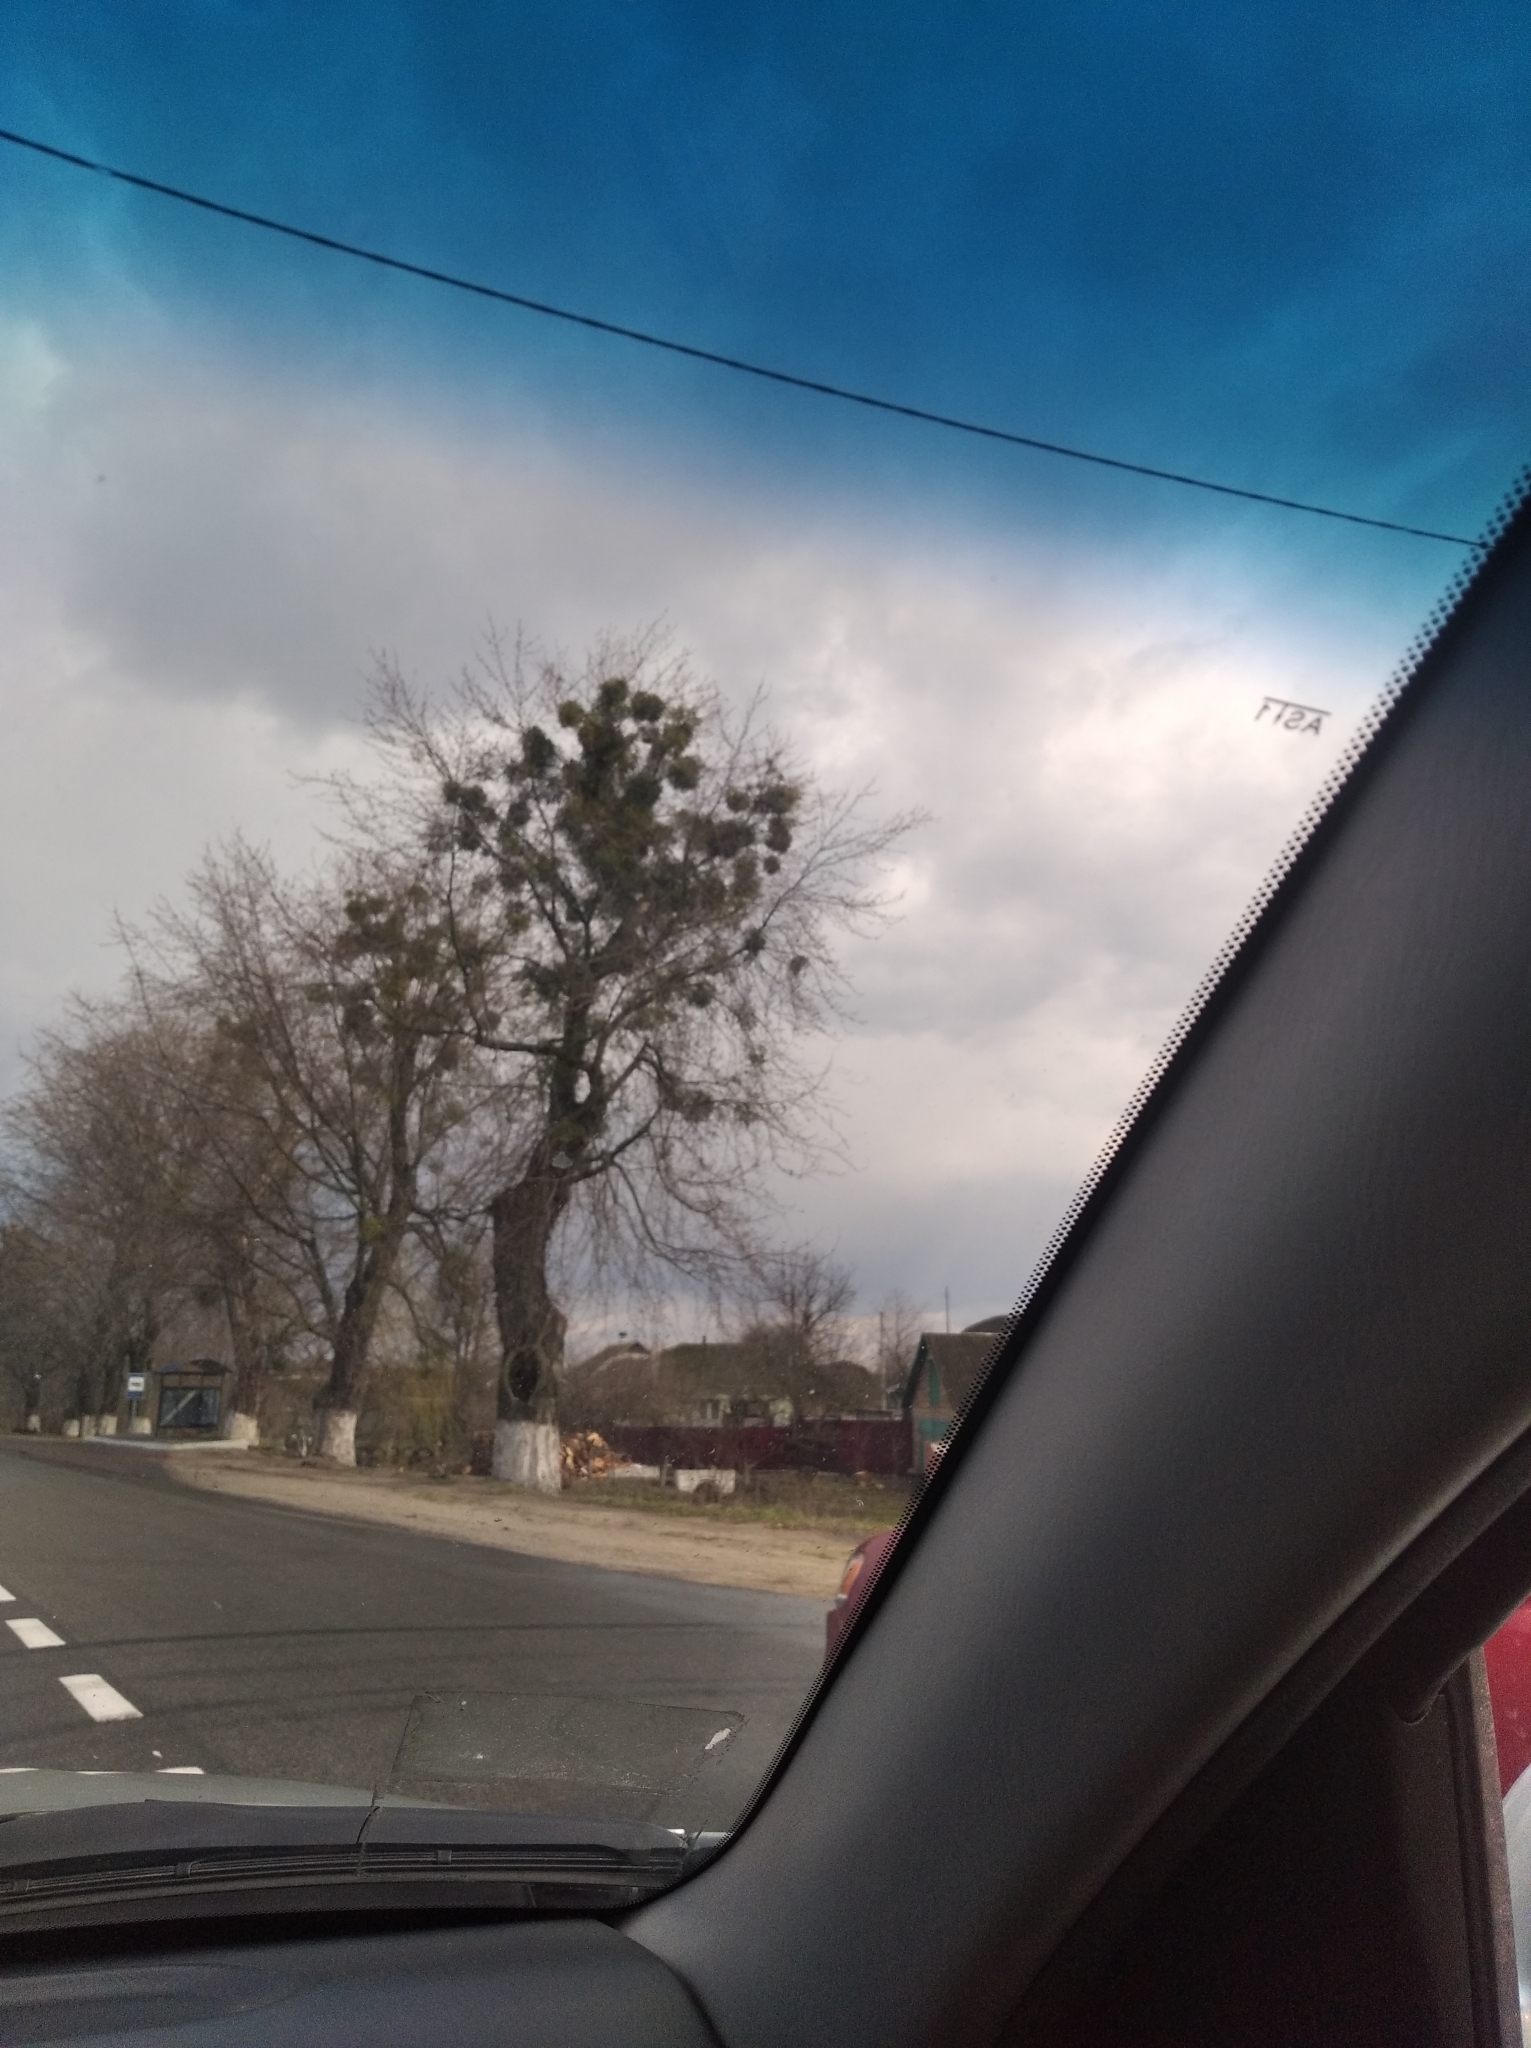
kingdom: Plantae
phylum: Tracheophyta
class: Magnoliopsida
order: Santalales
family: Viscaceae
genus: Viscum
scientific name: Viscum album
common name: Mistletoe
